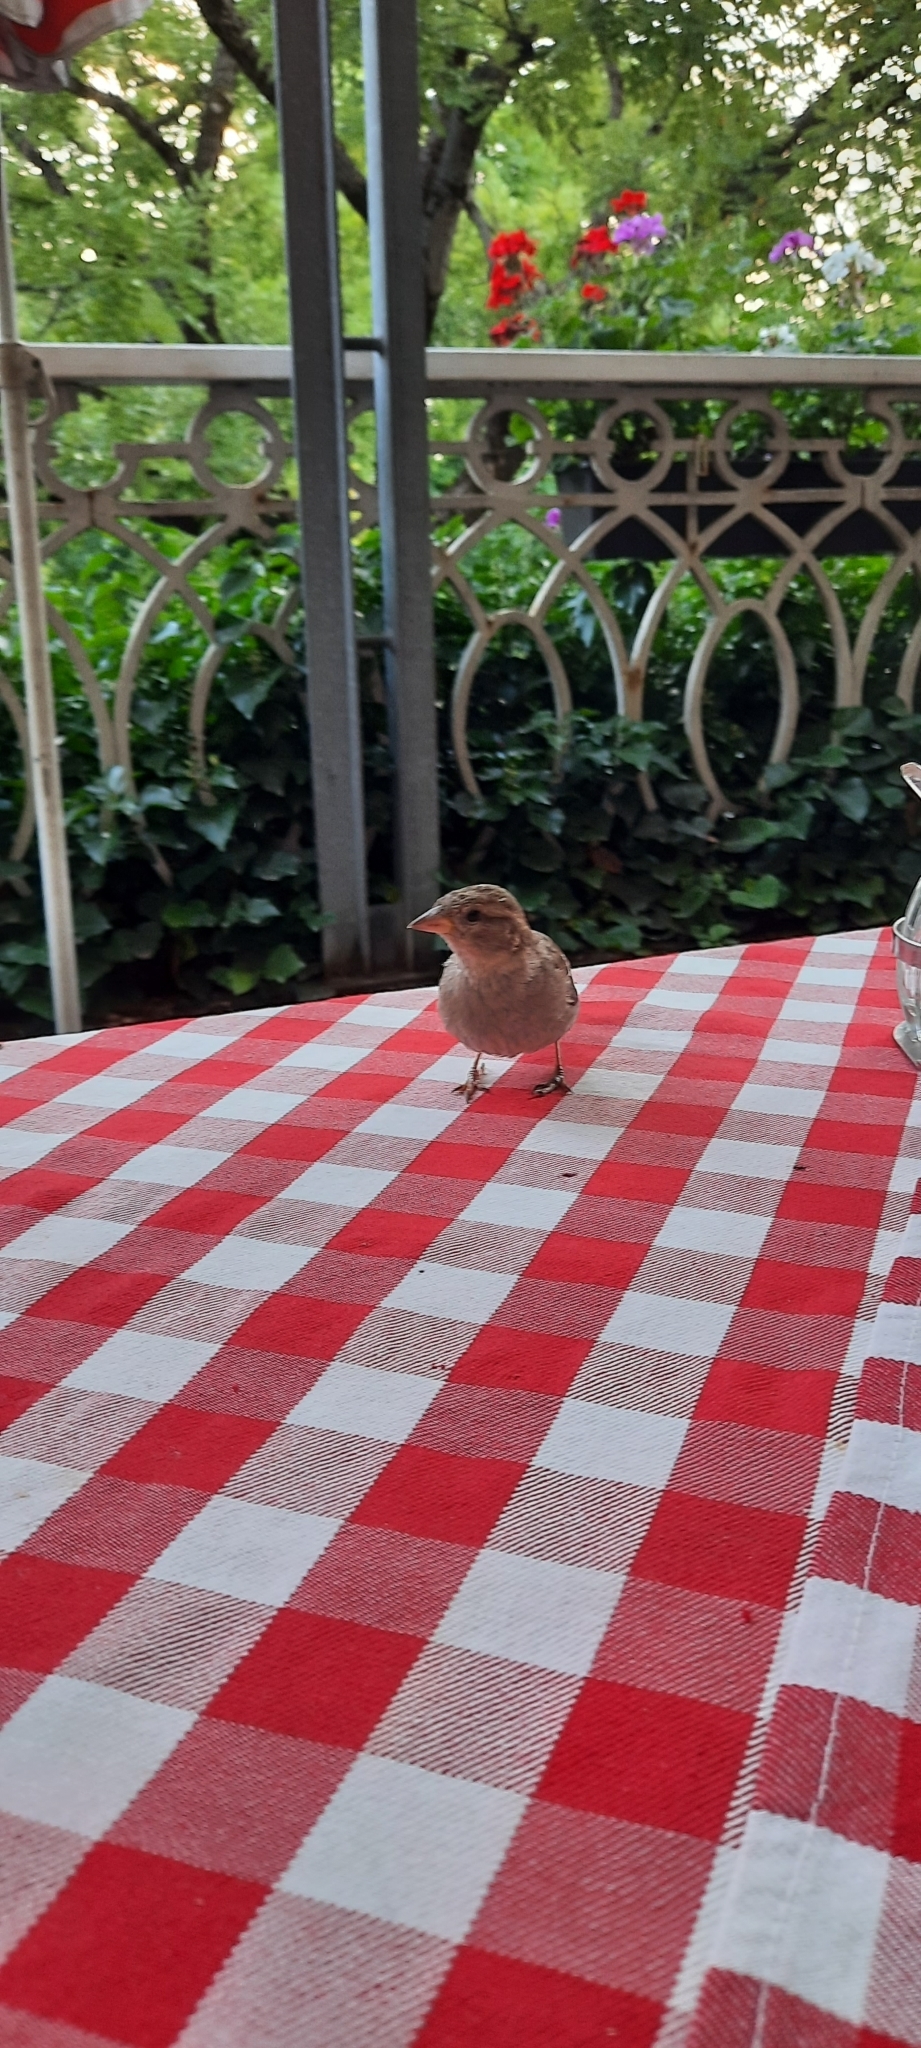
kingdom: Animalia
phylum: Chordata
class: Aves
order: Passeriformes
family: Passeridae
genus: Passer
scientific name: Passer domesticus
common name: House sparrow
